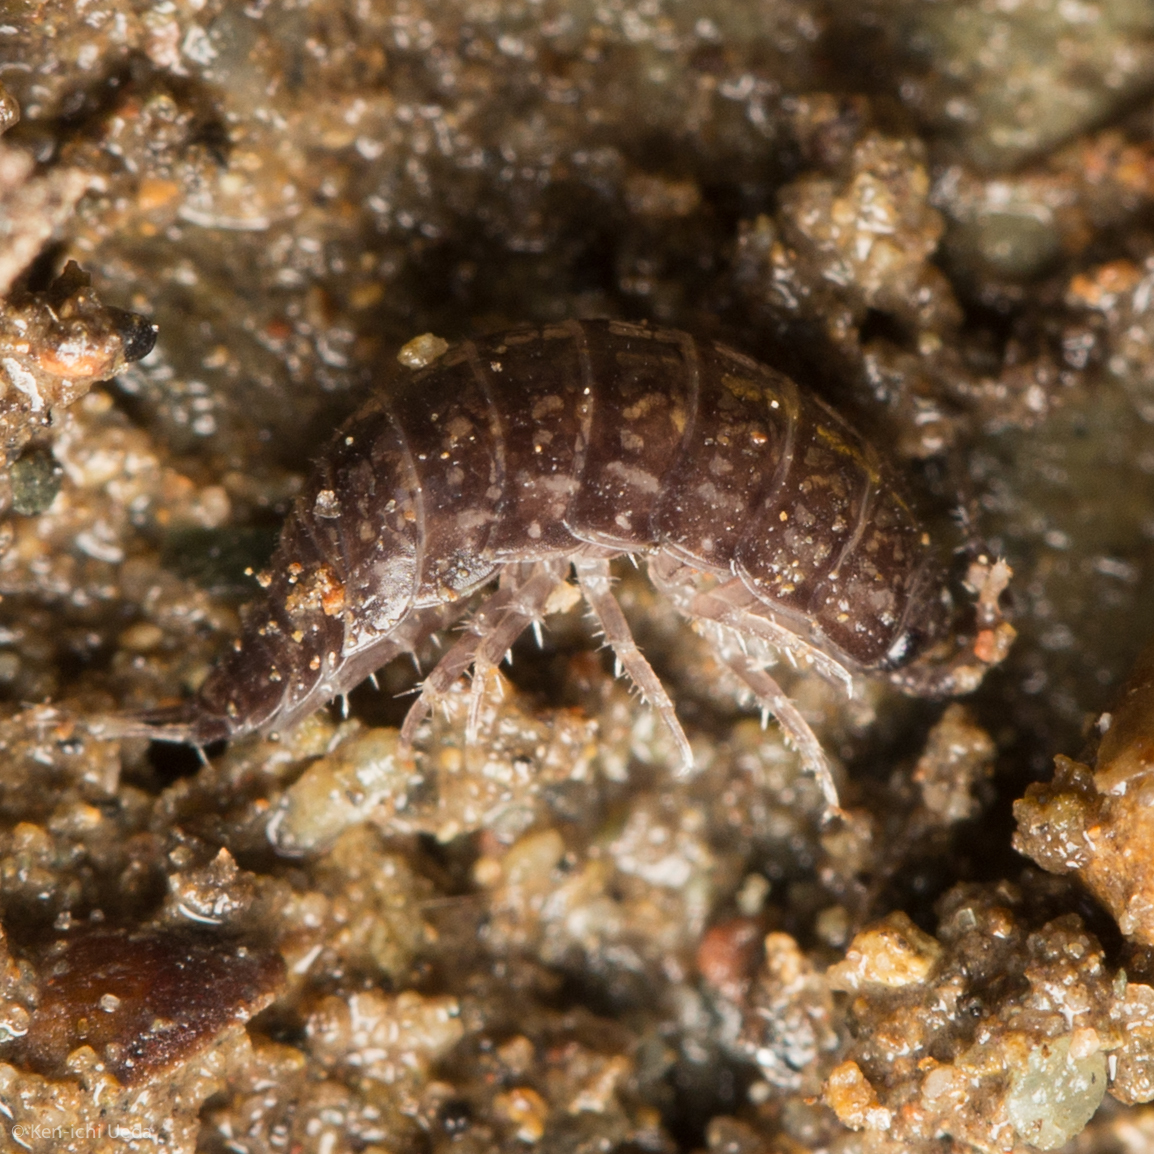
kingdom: Animalia
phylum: Arthropoda
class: Malacostraca
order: Isopoda
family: Ligiidae
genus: Ligidium
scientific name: Ligidium gracile
